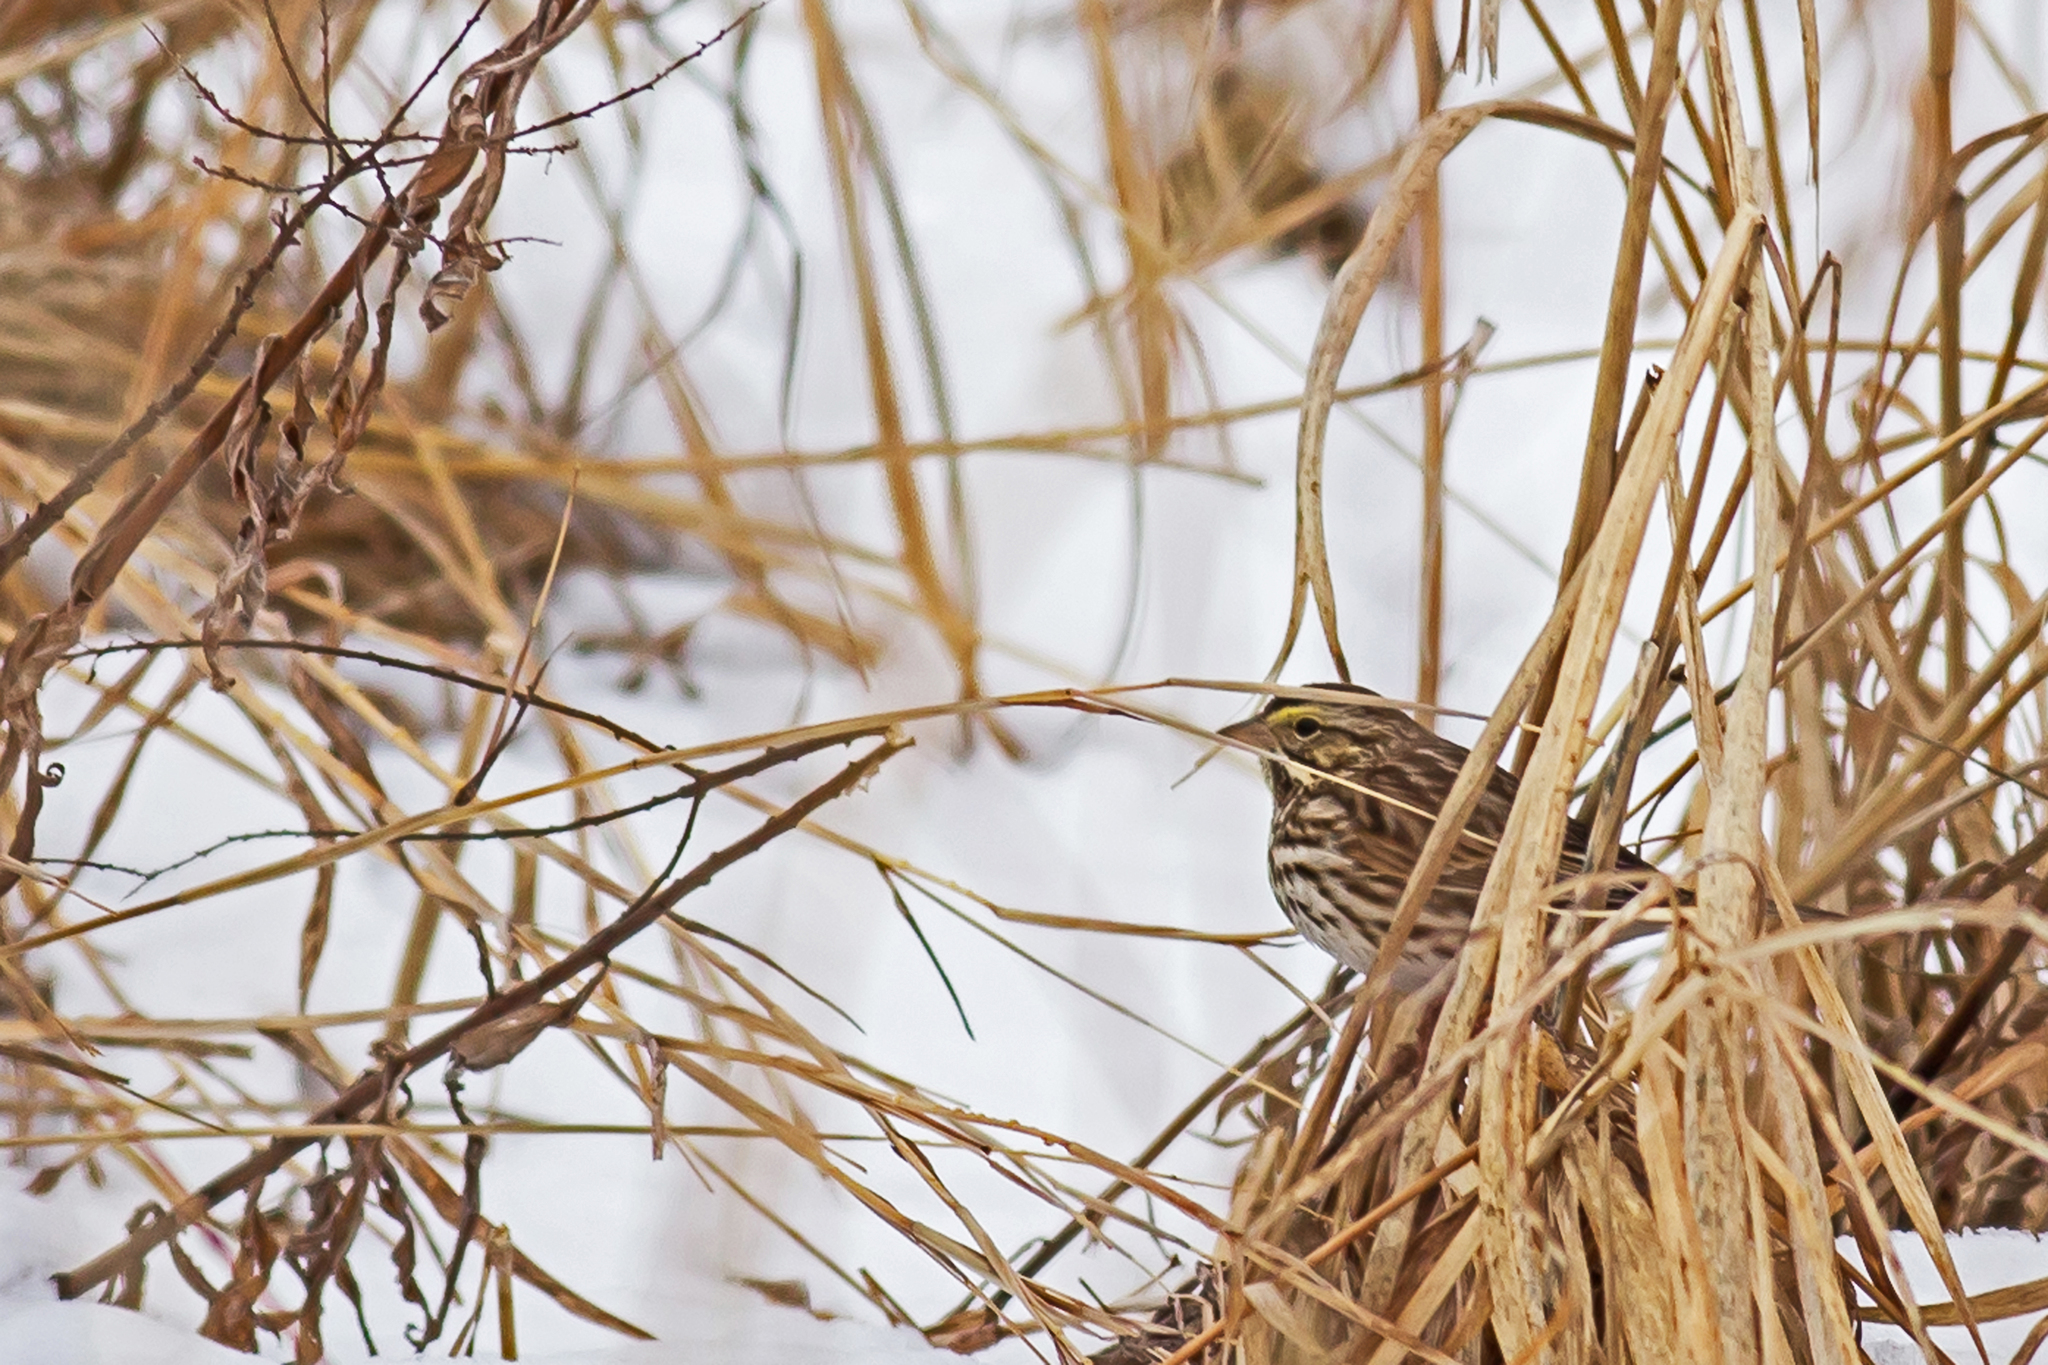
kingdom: Animalia
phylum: Chordata
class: Aves
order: Passeriformes
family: Passerellidae
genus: Passerculus
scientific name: Passerculus sandwichensis
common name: Savannah sparrow
